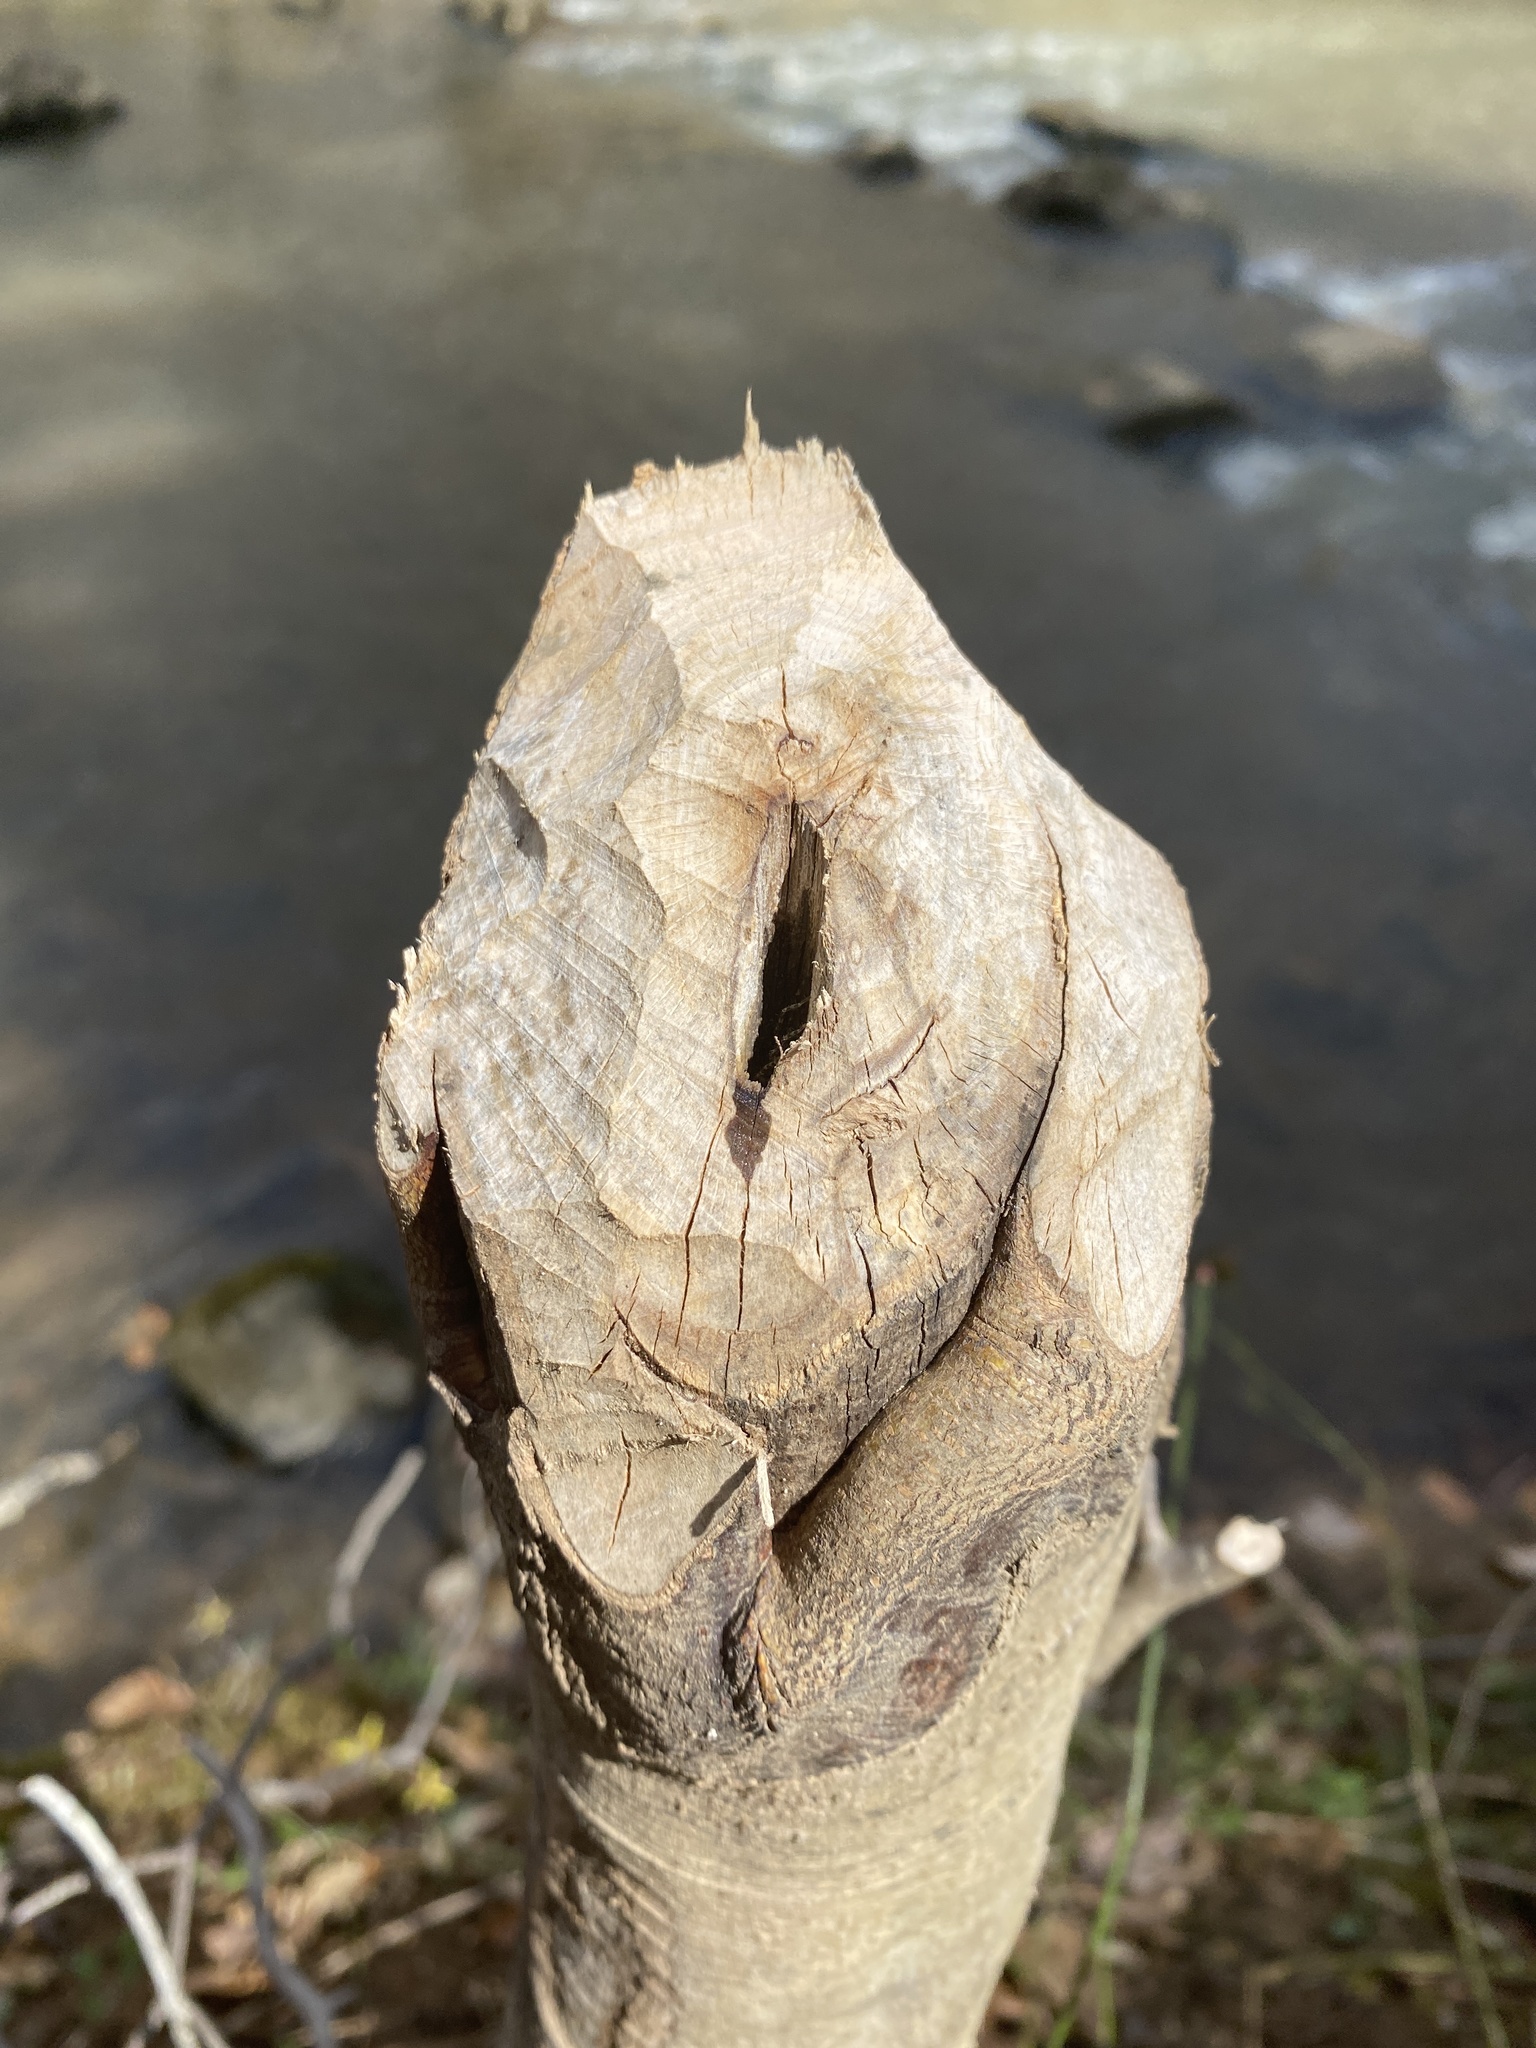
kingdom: Animalia
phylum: Chordata
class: Mammalia
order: Rodentia
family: Castoridae
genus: Castor
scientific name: Castor canadensis
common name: American beaver
